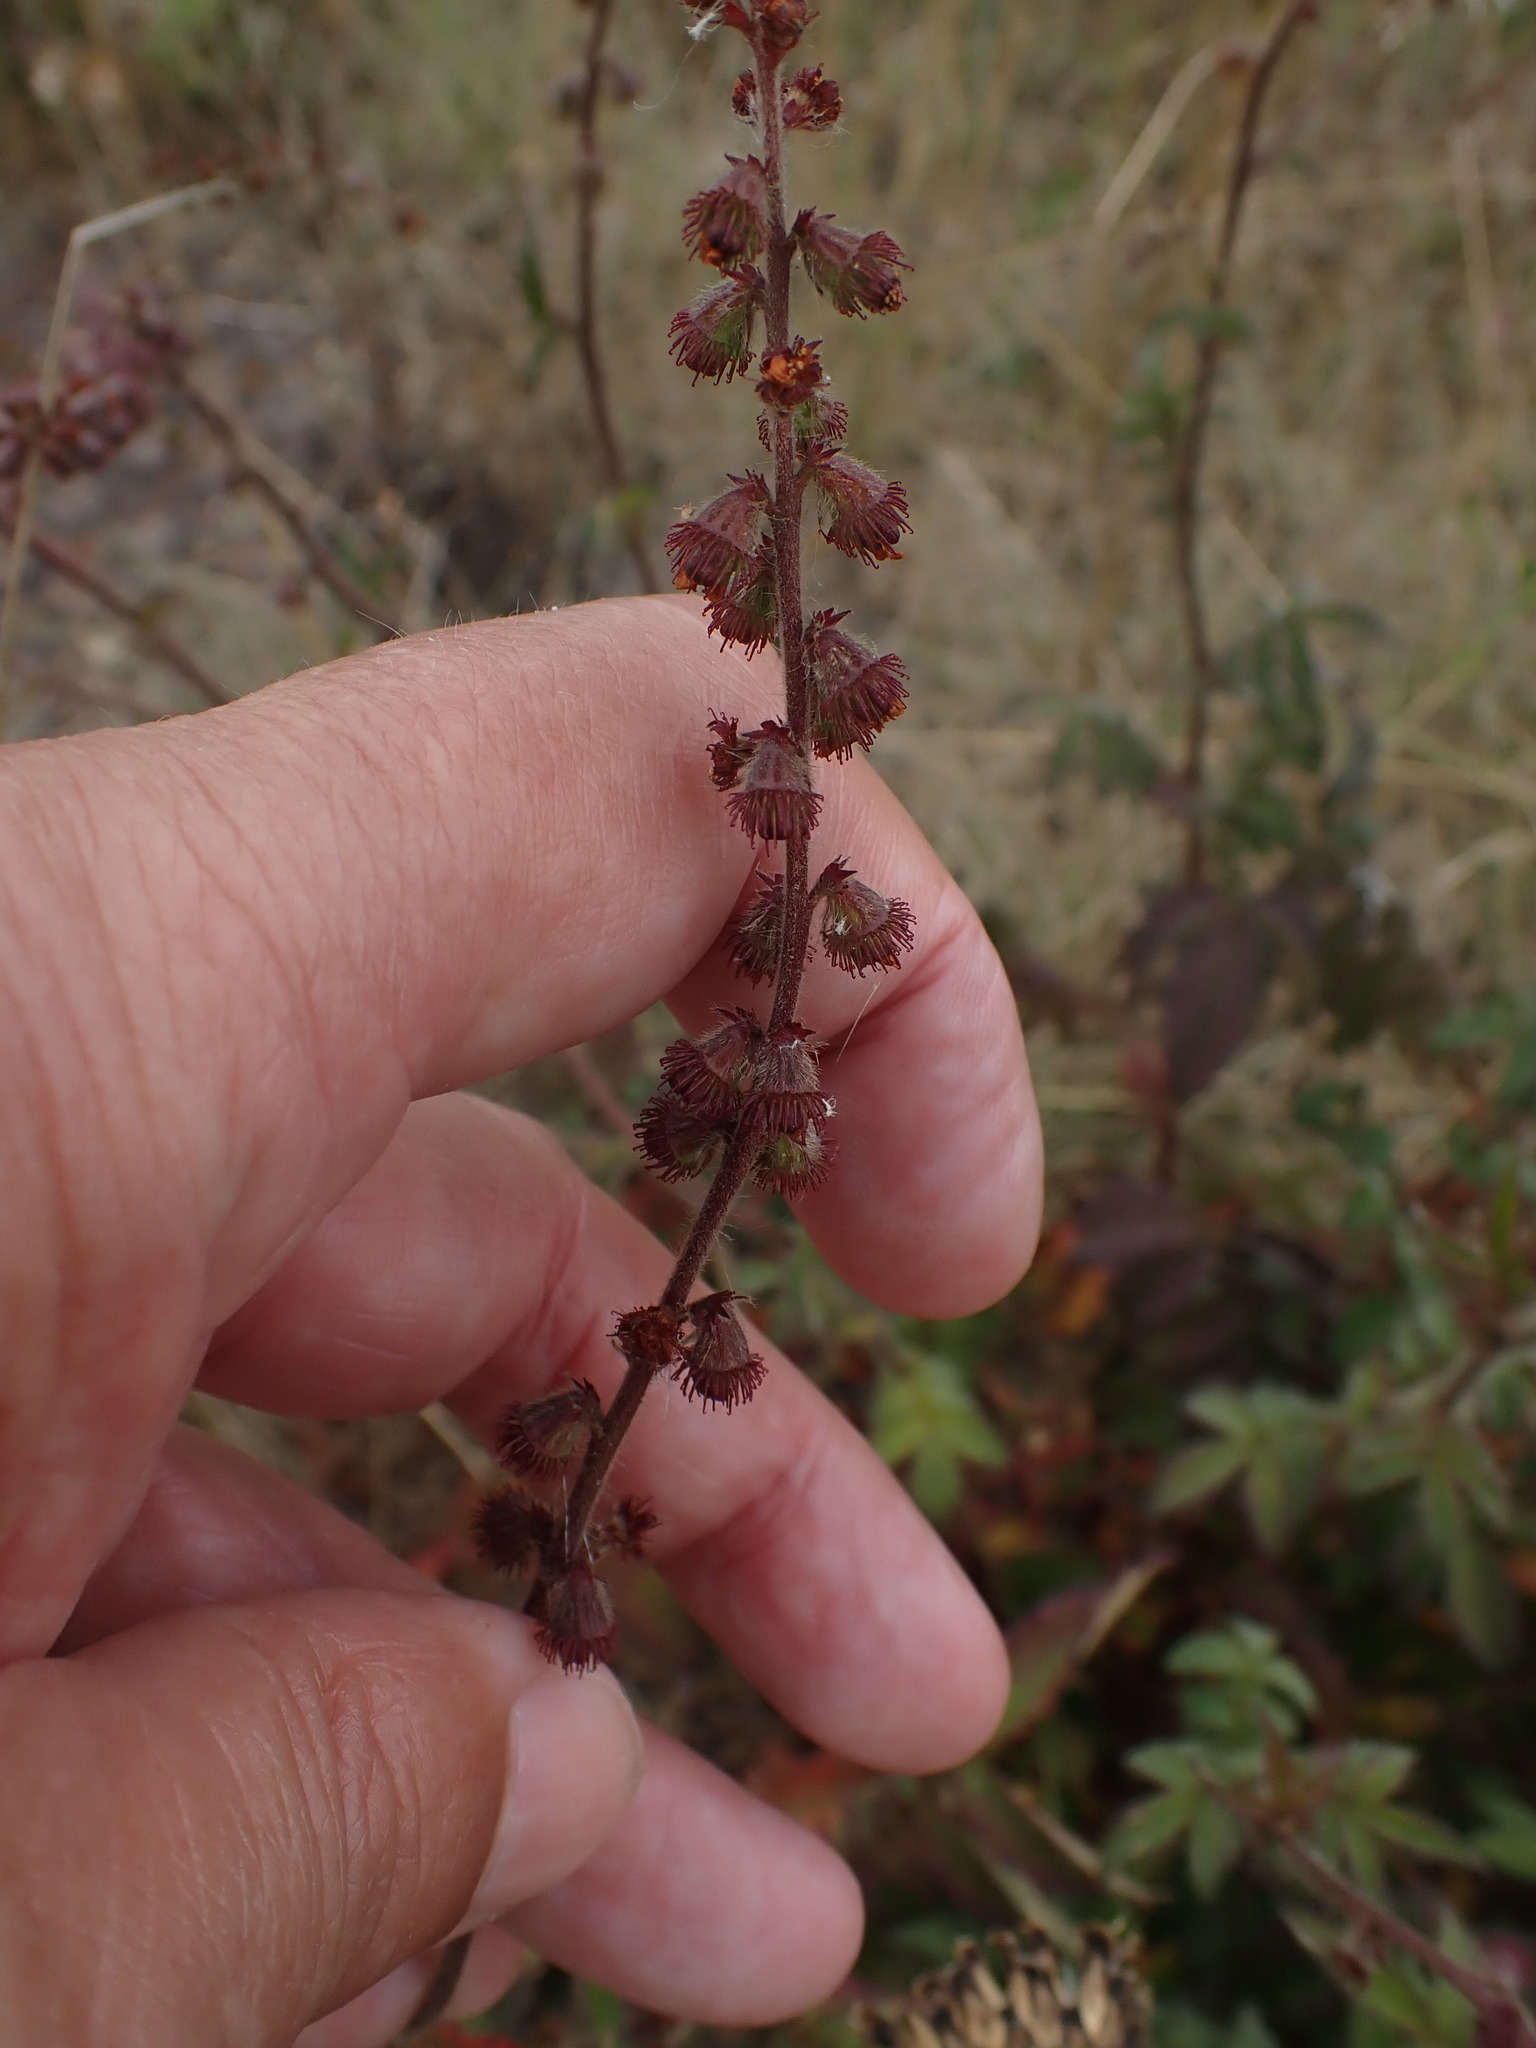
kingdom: Plantae
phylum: Tracheophyta
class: Magnoliopsida
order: Rosales
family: Rosaceae
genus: Agrimonia
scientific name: Agrimonia eupatoria
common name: Agrimony
